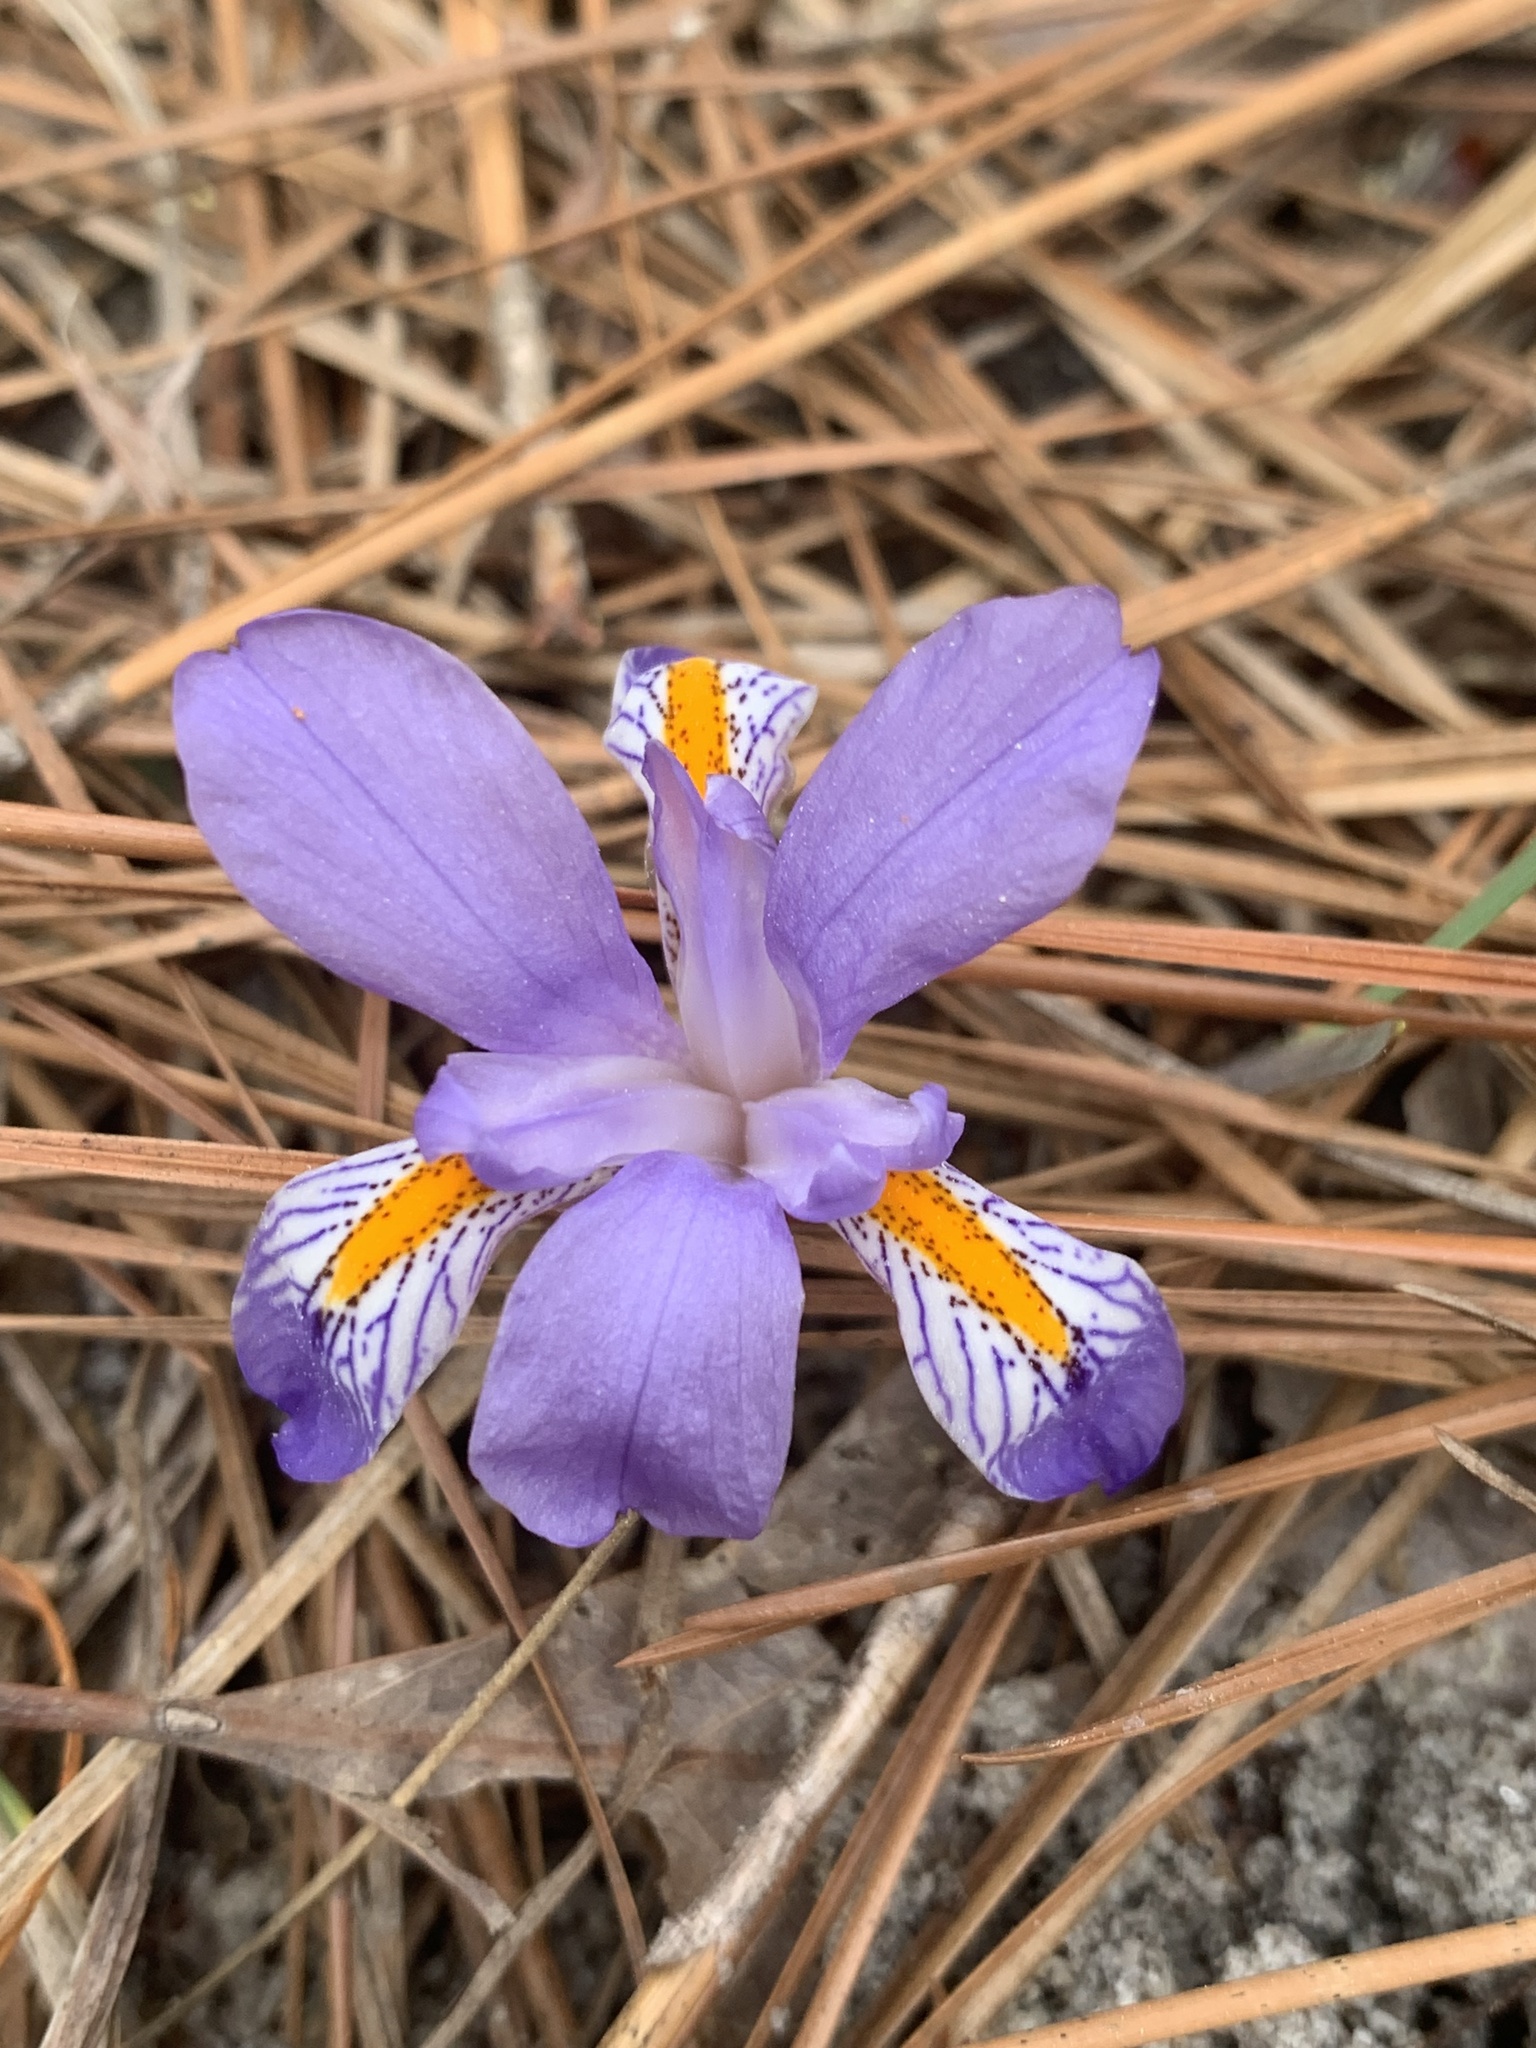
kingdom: Plantae
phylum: Tracheophyta
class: Liliopsida
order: Asparagales
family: Iridaceae
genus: Iris
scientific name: Iris verna
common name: Dwarf iris
